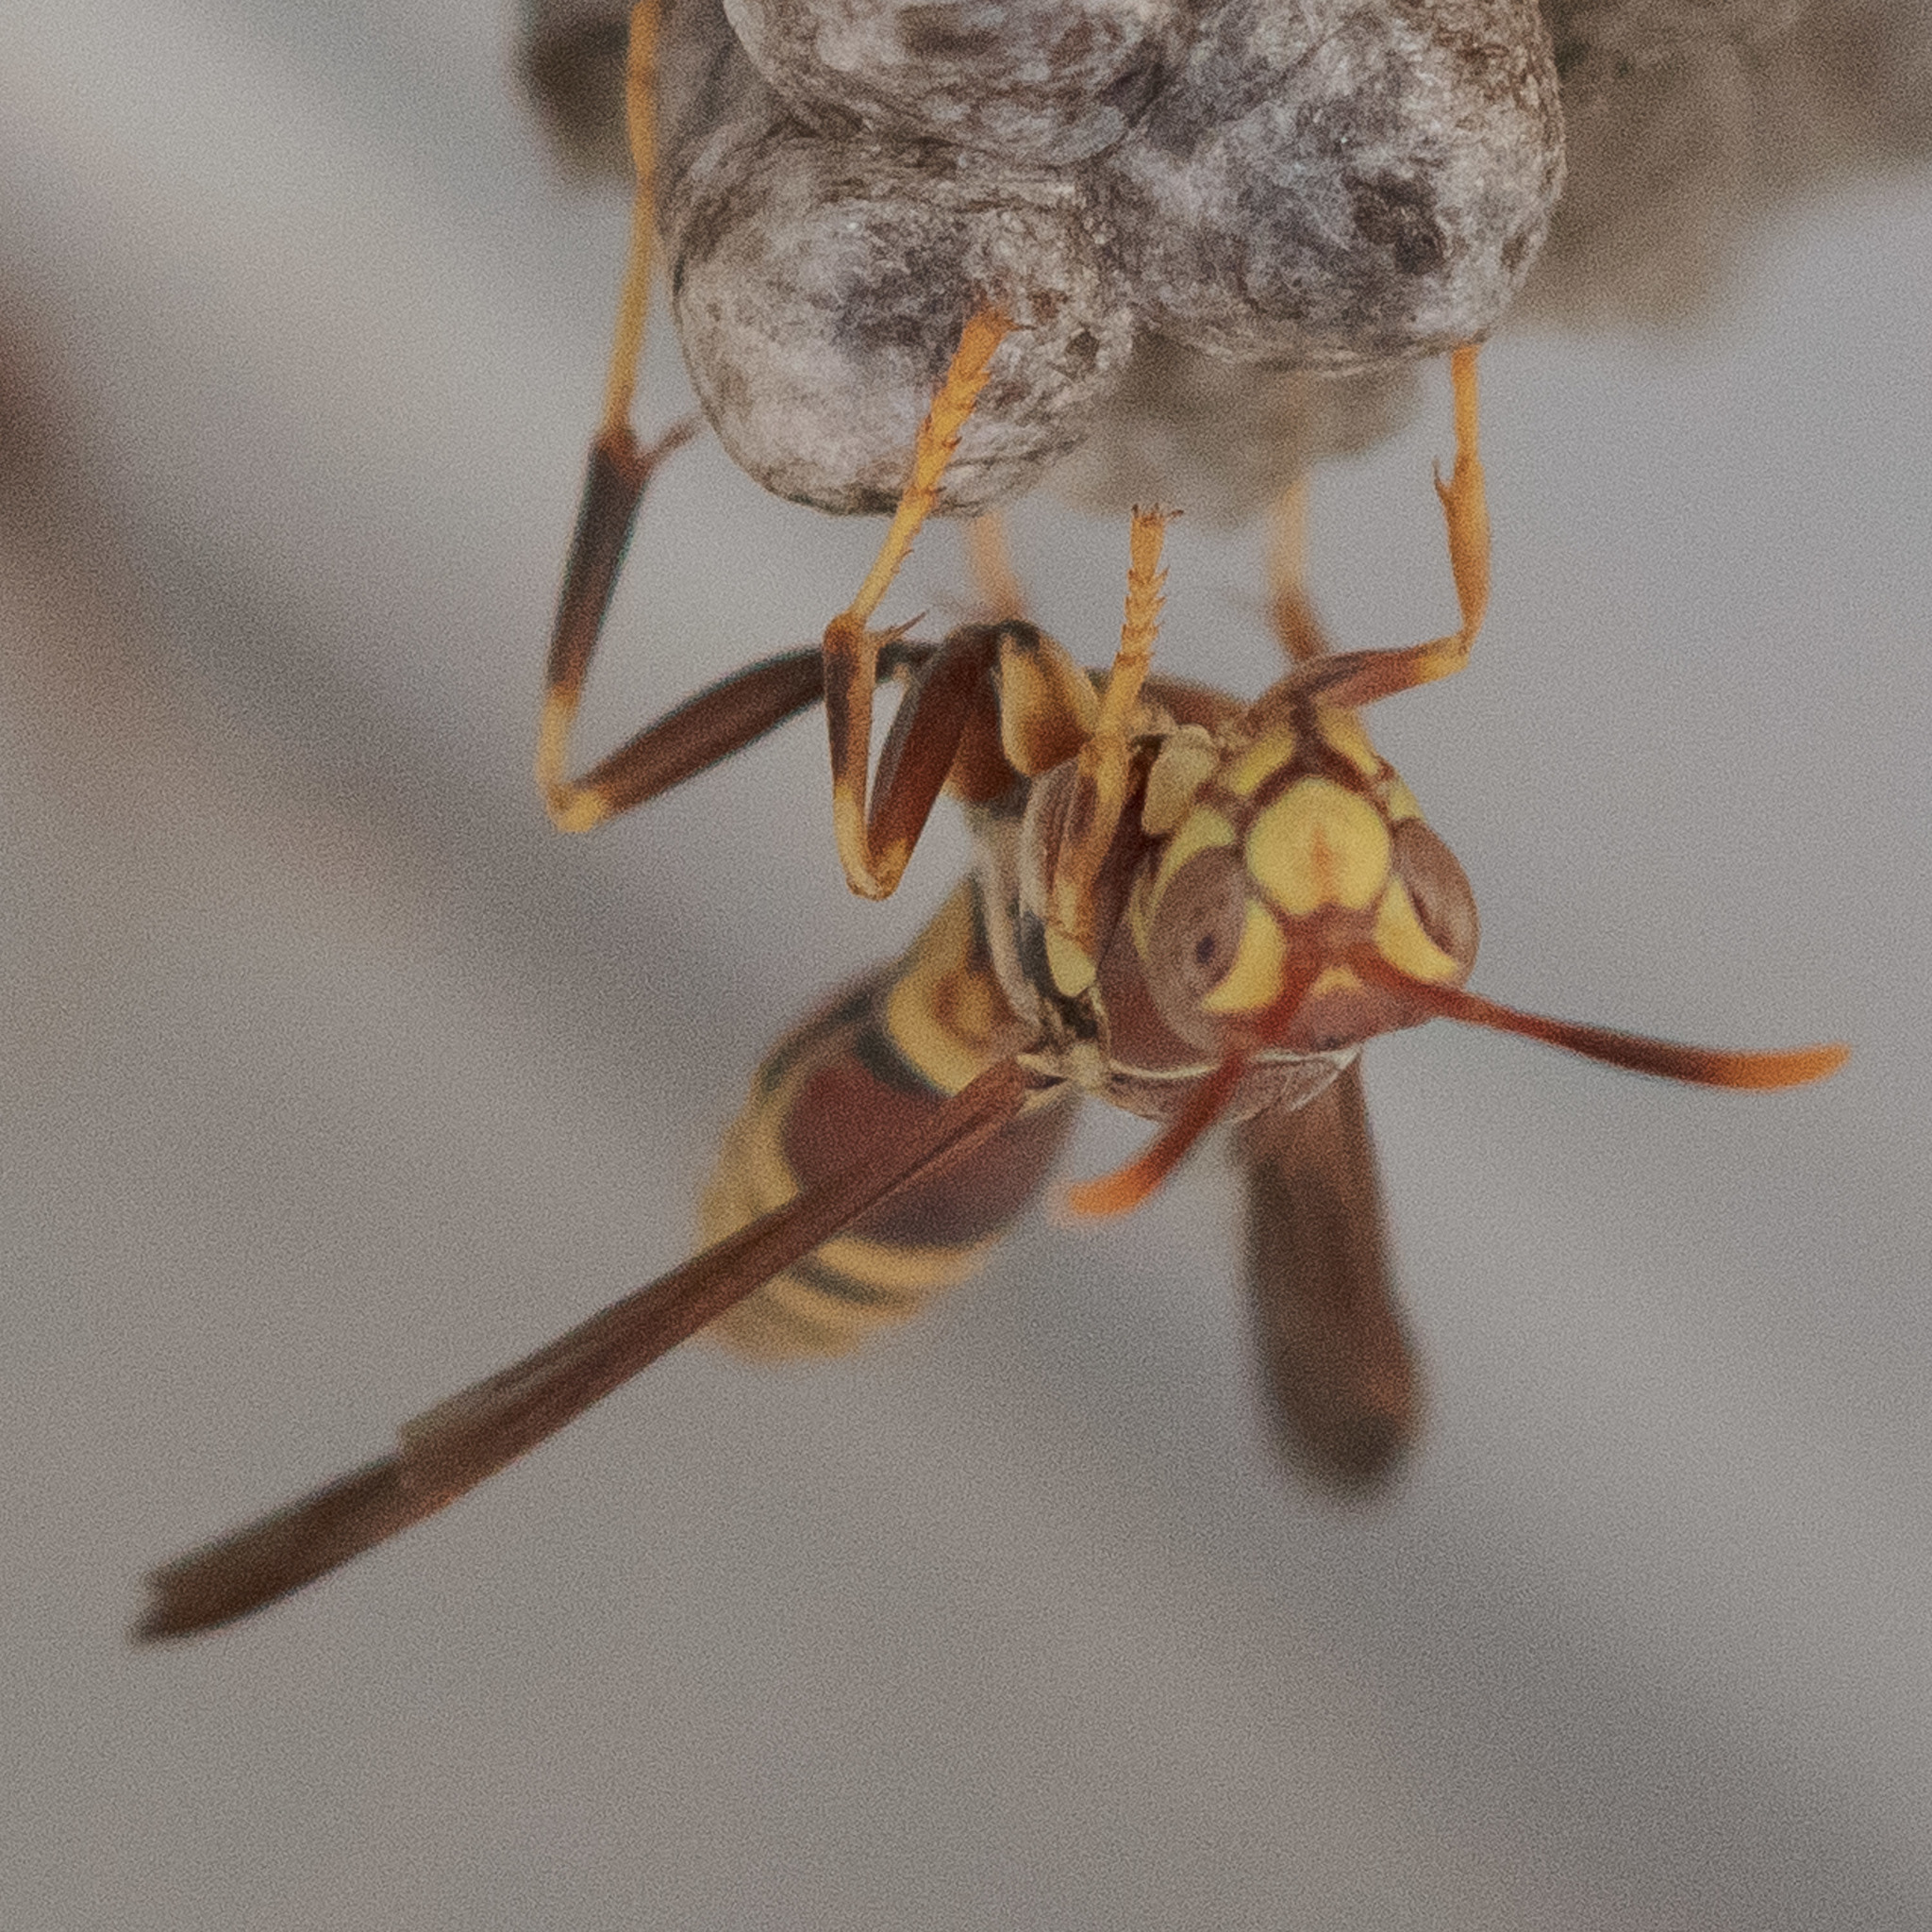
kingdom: Animalia
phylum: Arthropoda
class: Insecta
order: Hymenoptera
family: Eumenidae
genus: Polistes
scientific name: Polistes exclamans
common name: Paper wasp
